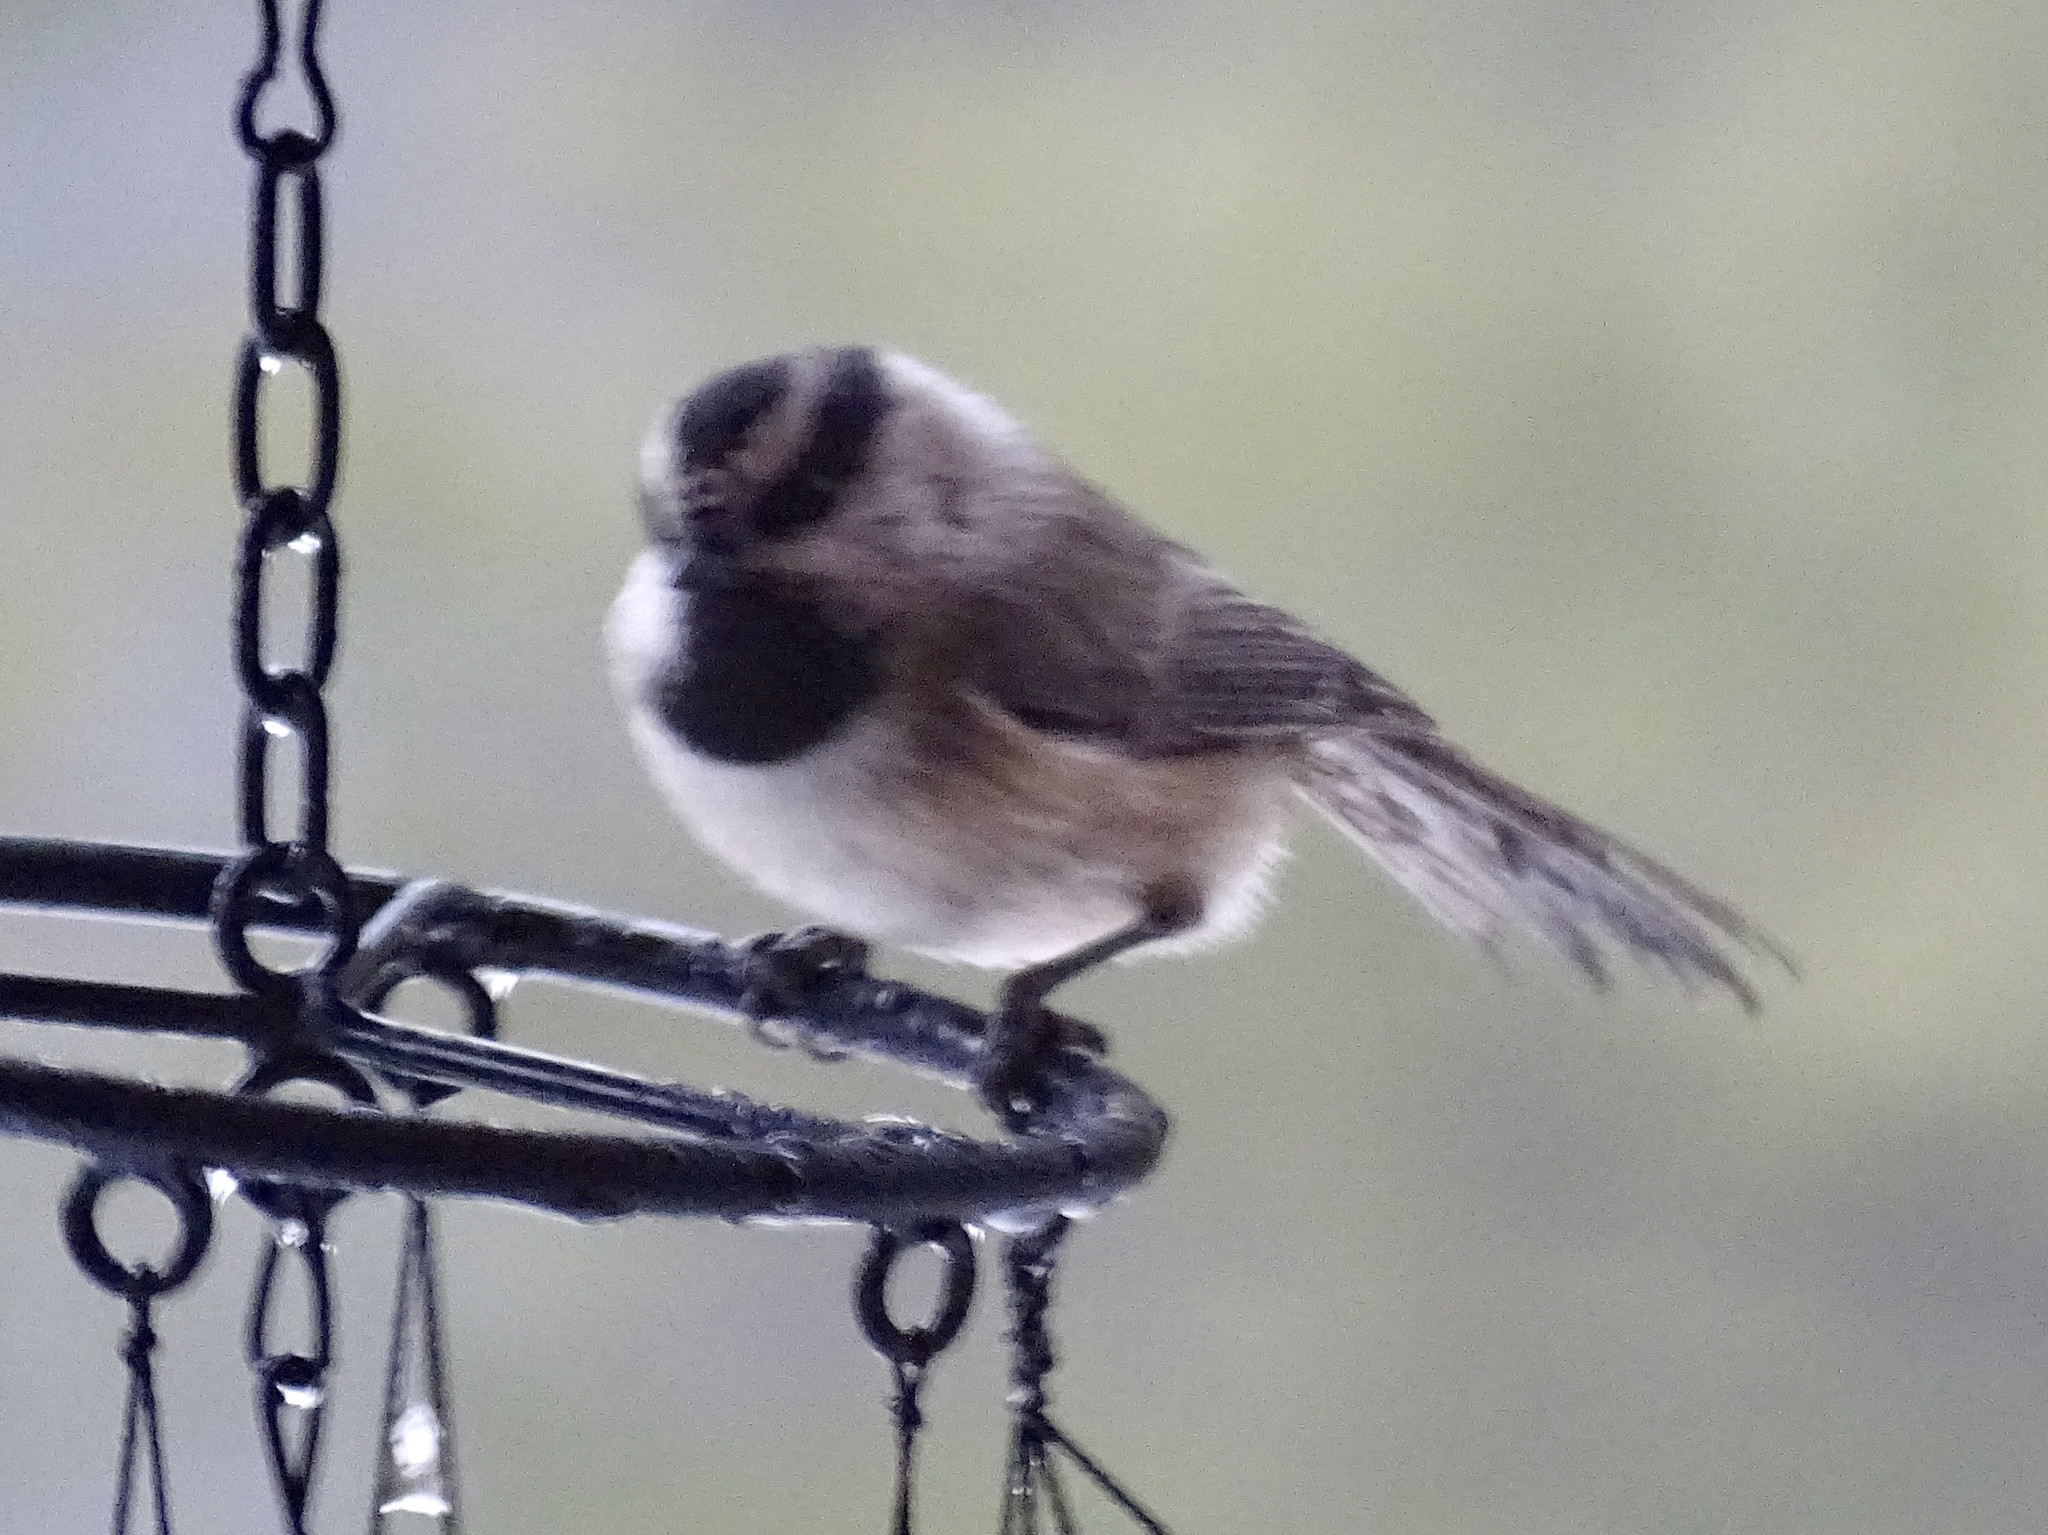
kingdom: Animalia
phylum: Chordata
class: Aves
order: Passeriformes
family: Paridae
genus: Poecile
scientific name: Poecile gambeli
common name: Mountain chickadee
